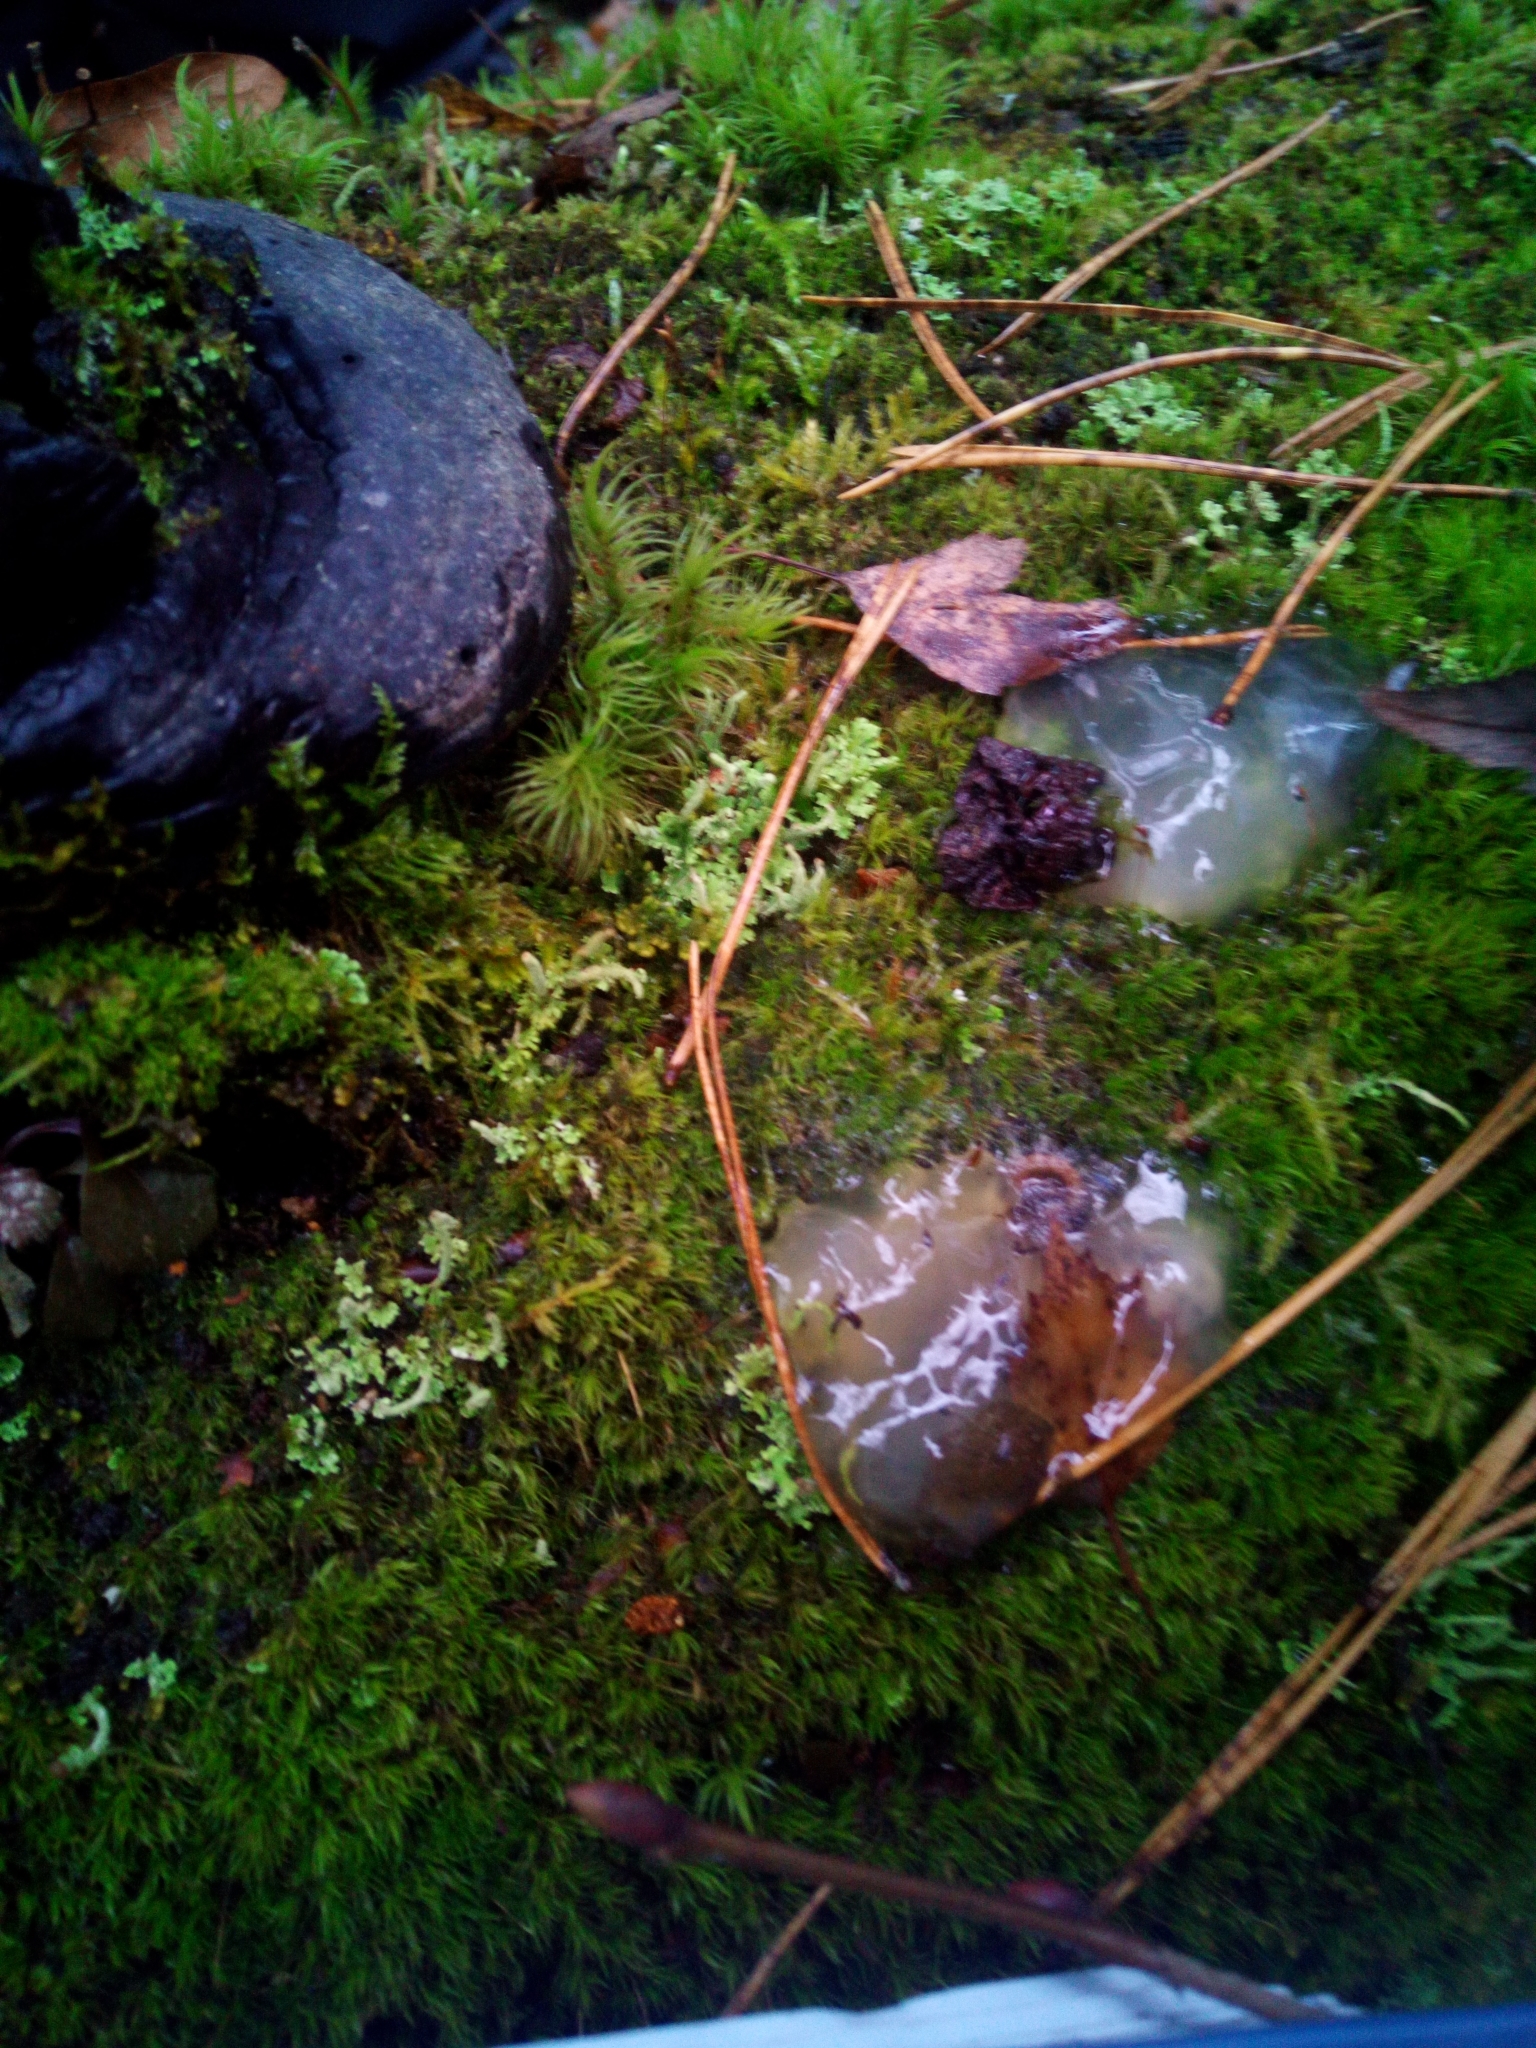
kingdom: Fungi
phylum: Basidiomycota
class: Agaricomycetes
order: Auriculariales
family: Hyaloriaceae
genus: Myxarium
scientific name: Myxarium nucleatum
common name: Crystal brain fungus
